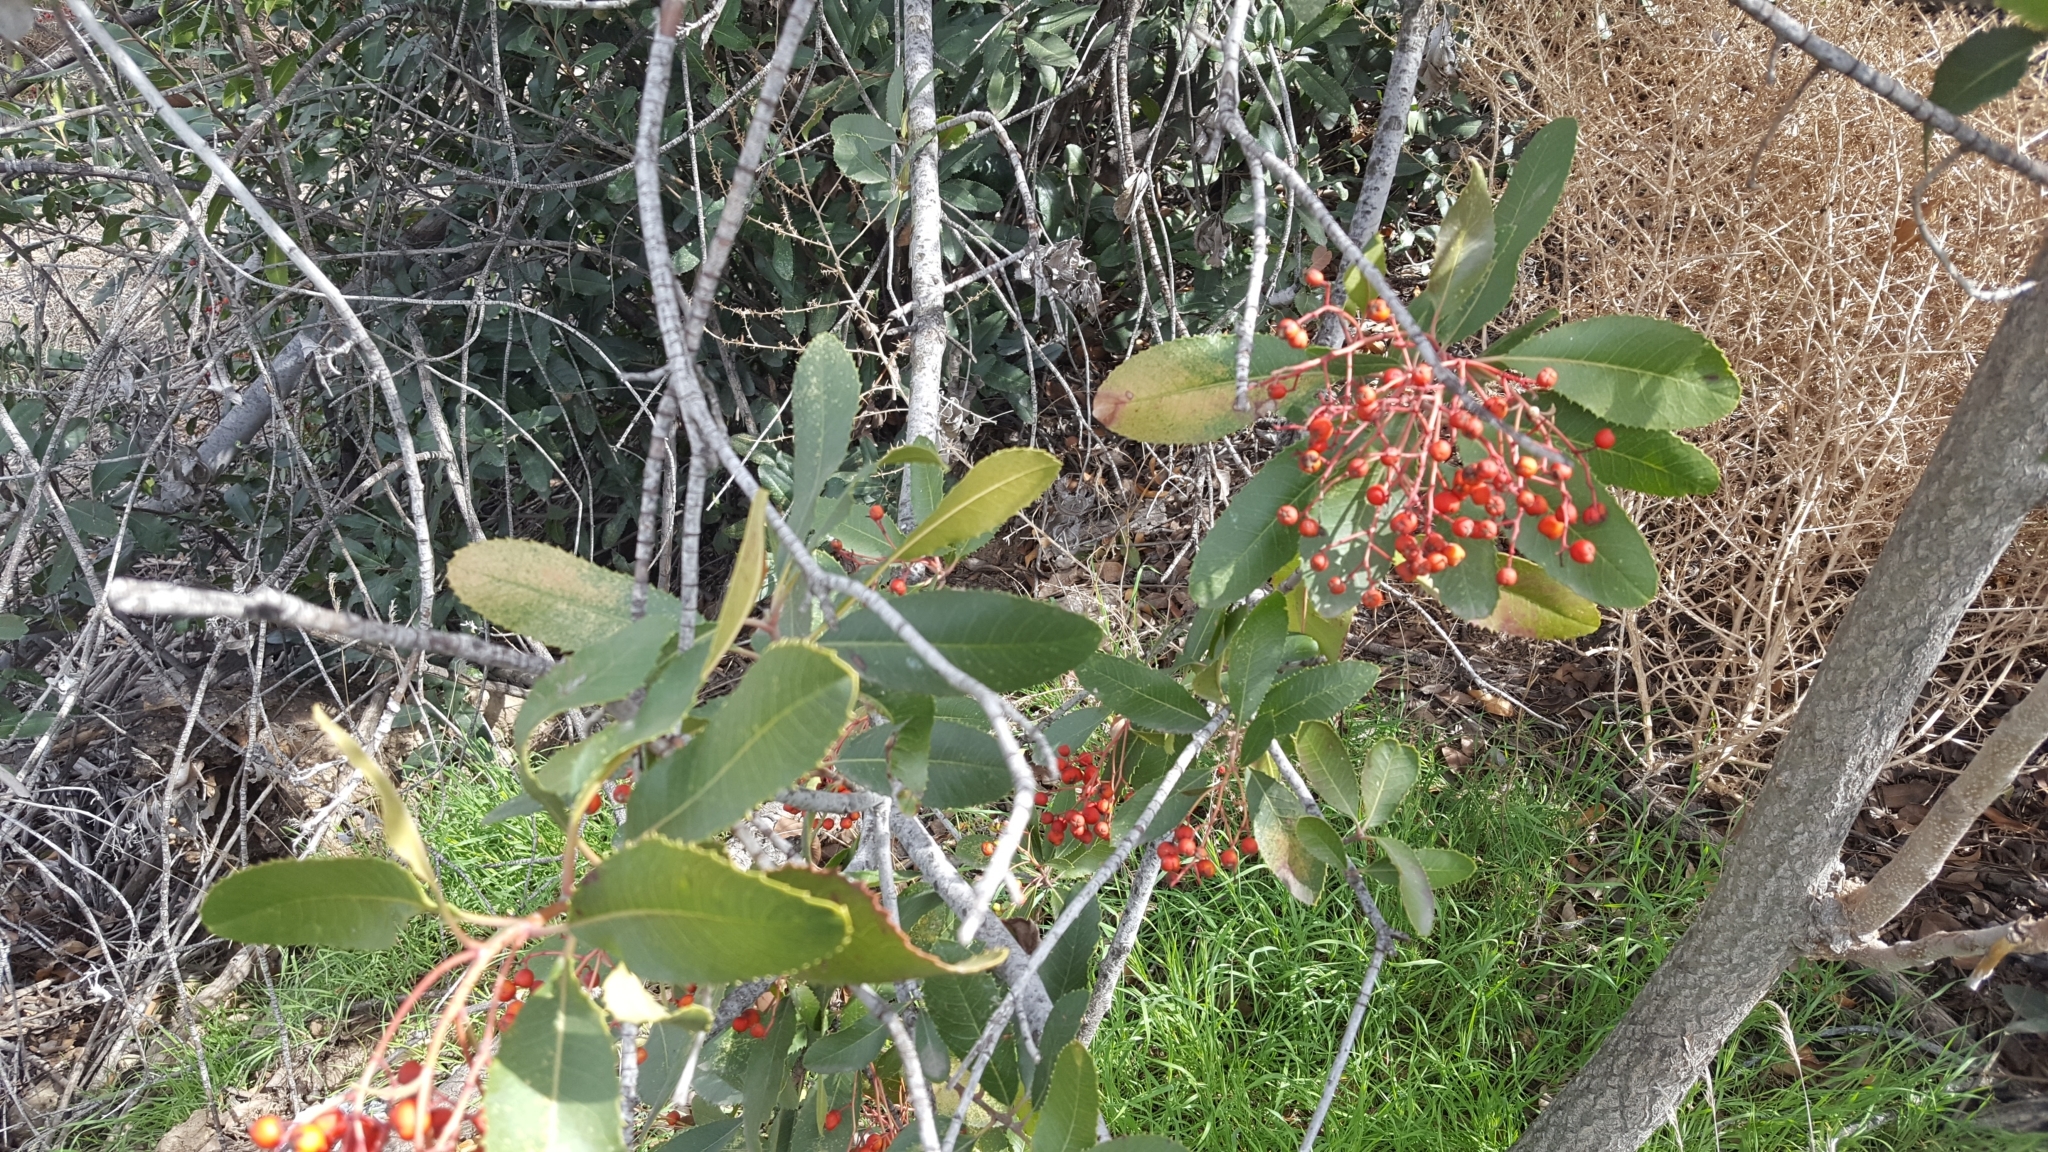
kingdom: Plantae
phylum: Tracheophyta
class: Magnoliopsida
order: Rosales
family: Rosaceae
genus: Heteromeles
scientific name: Heteromeles arbutifolia
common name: California-holly
